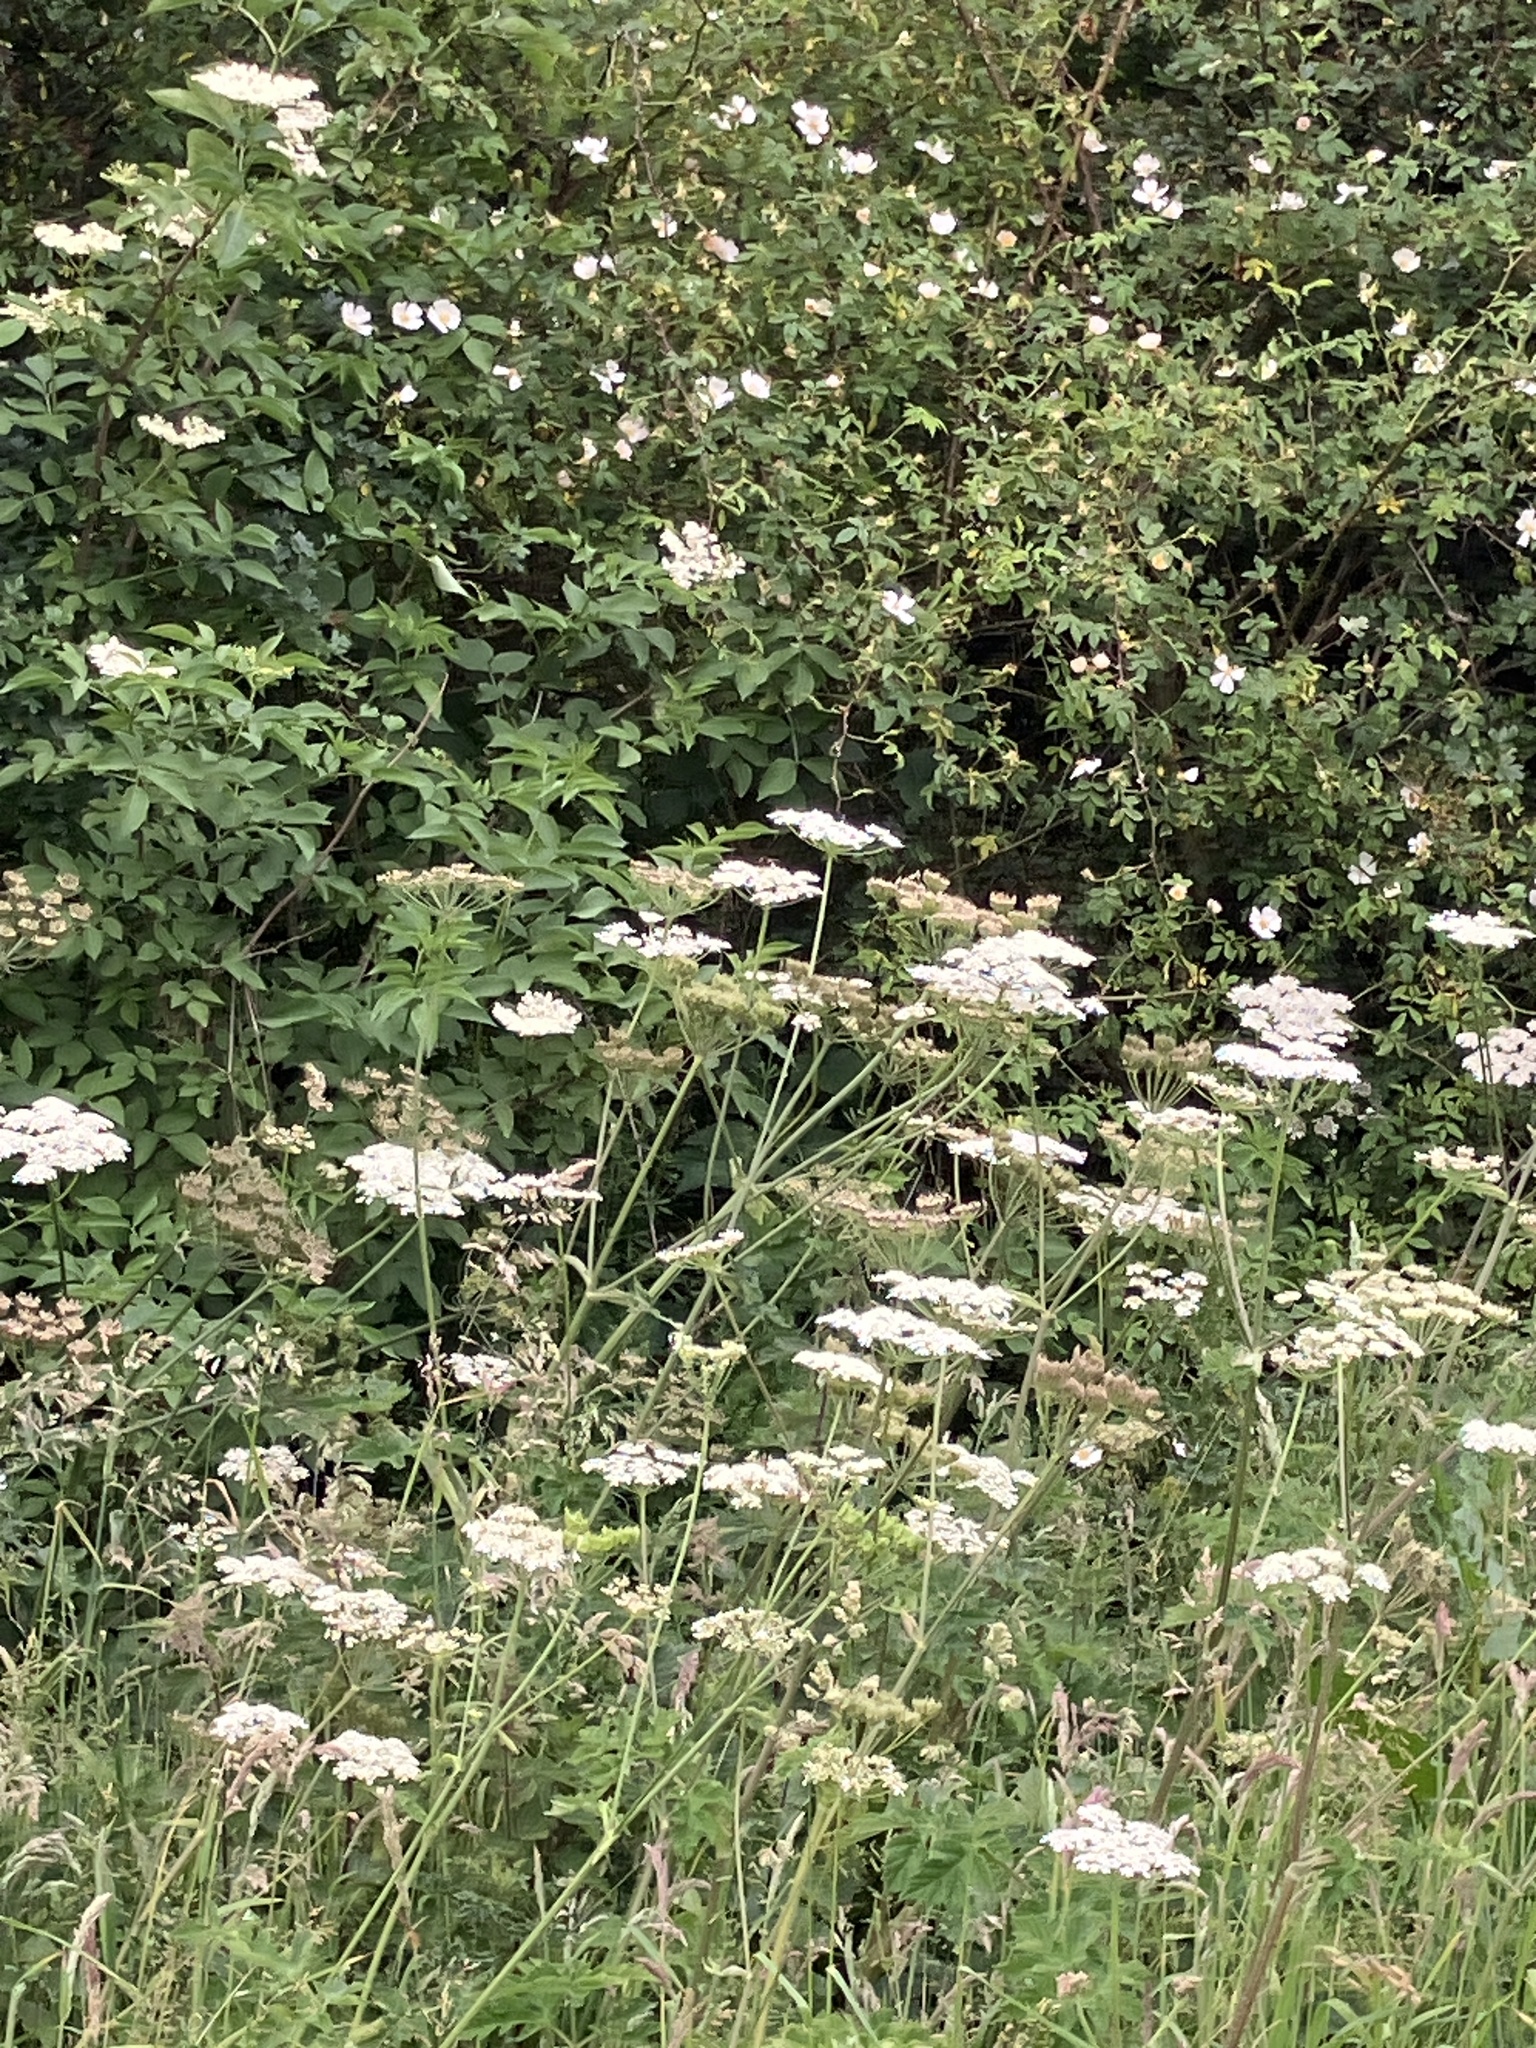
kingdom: Plantae
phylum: Tracheophyta
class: Magnoliopsida
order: Apiales
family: Apiaceae
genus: Heracleum
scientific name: Heracleum sphondylium
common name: Hogweed
